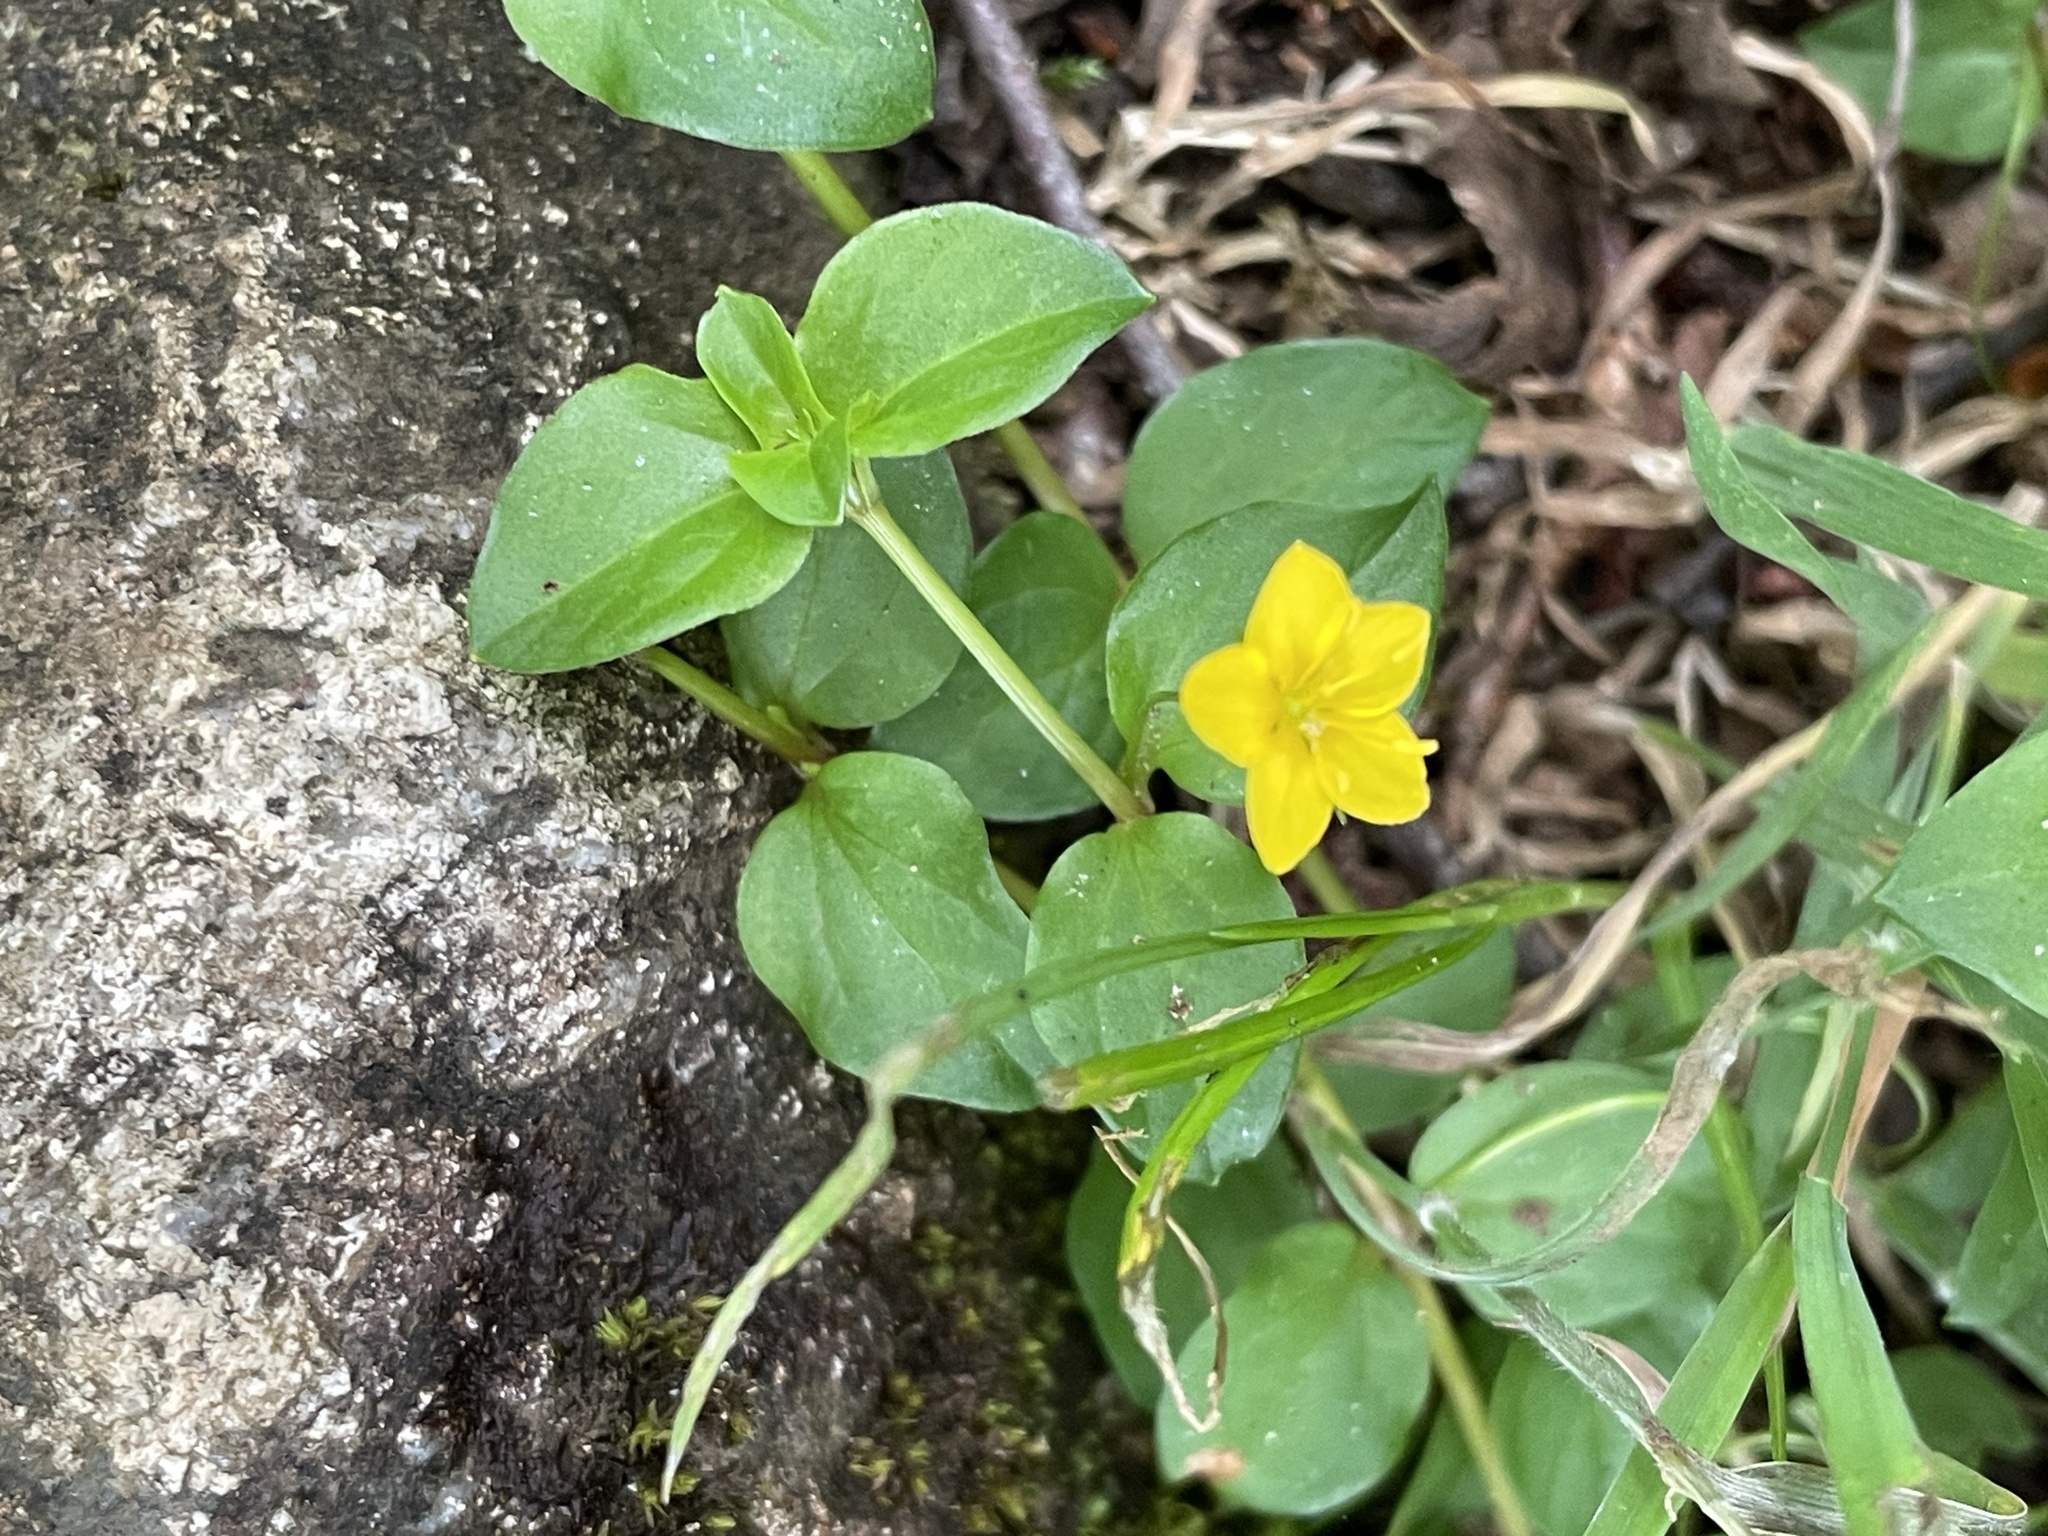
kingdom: Plantae
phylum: Tracheophyta
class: Magnoliopsida
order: Ericales
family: Primulaceae
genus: Lysimachia
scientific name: Lysimachia nemorum
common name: Yellow pimpernel
